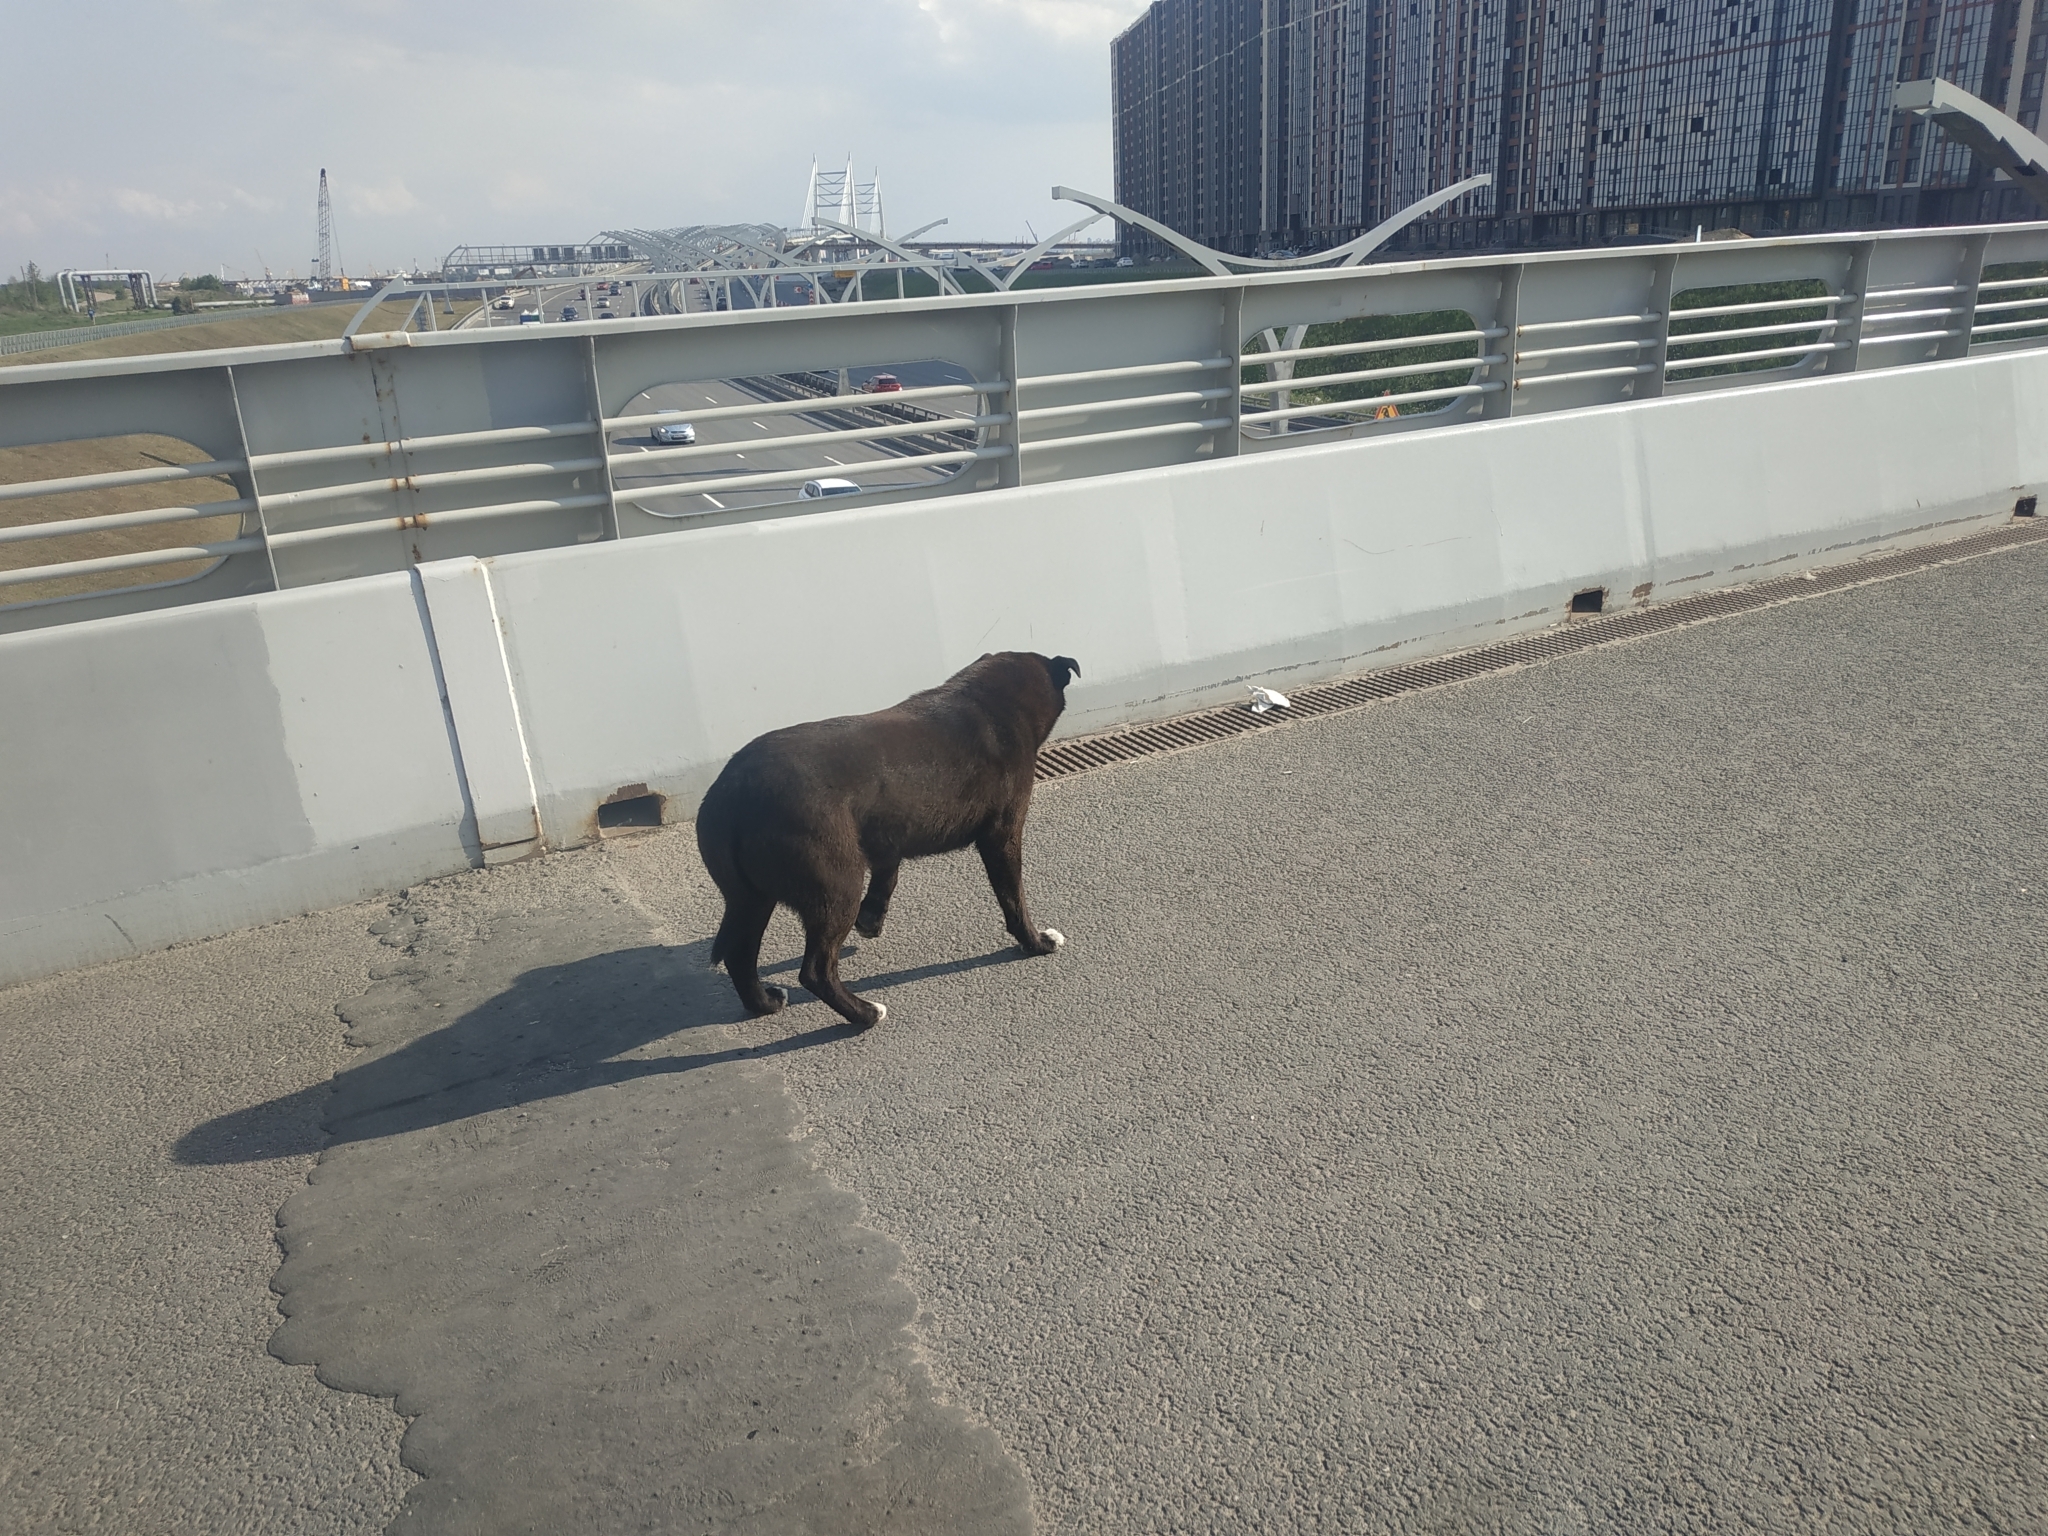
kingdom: Animalia
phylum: Chordata
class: Mammalia
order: Carnivora
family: Canidae
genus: Canis
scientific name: Canis lupus
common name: Gray wolf
